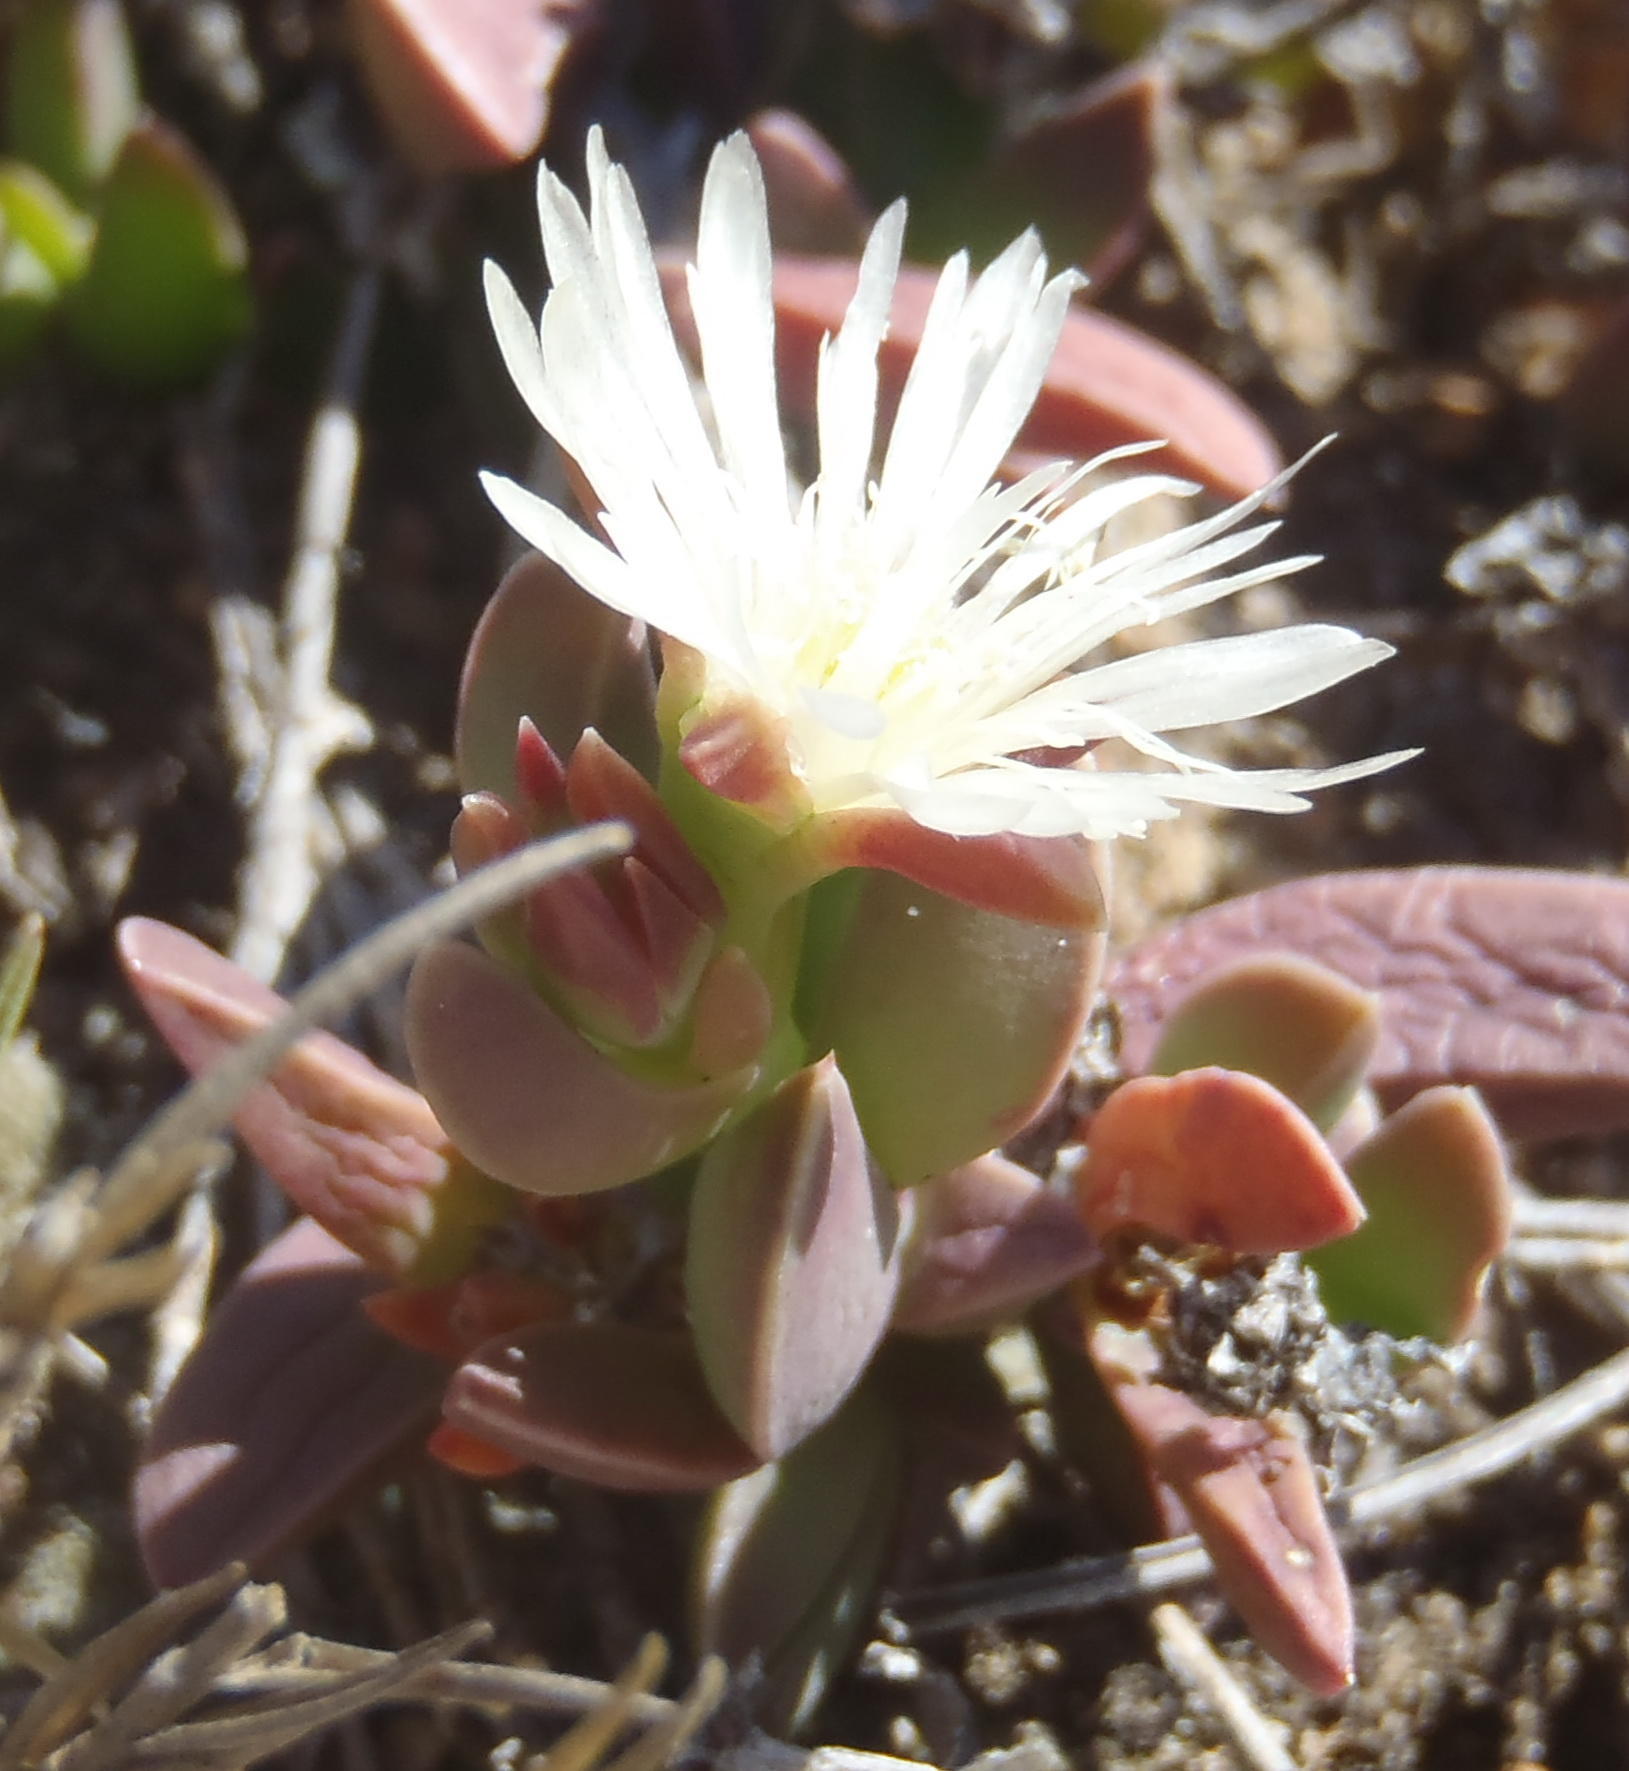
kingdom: Plantae
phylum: Tracheophyta
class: Magnoliopsida
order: Caryophyllales
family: Aizoaceae
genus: Delosperma
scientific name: Delosperma litorale
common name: Seaside delosperma
